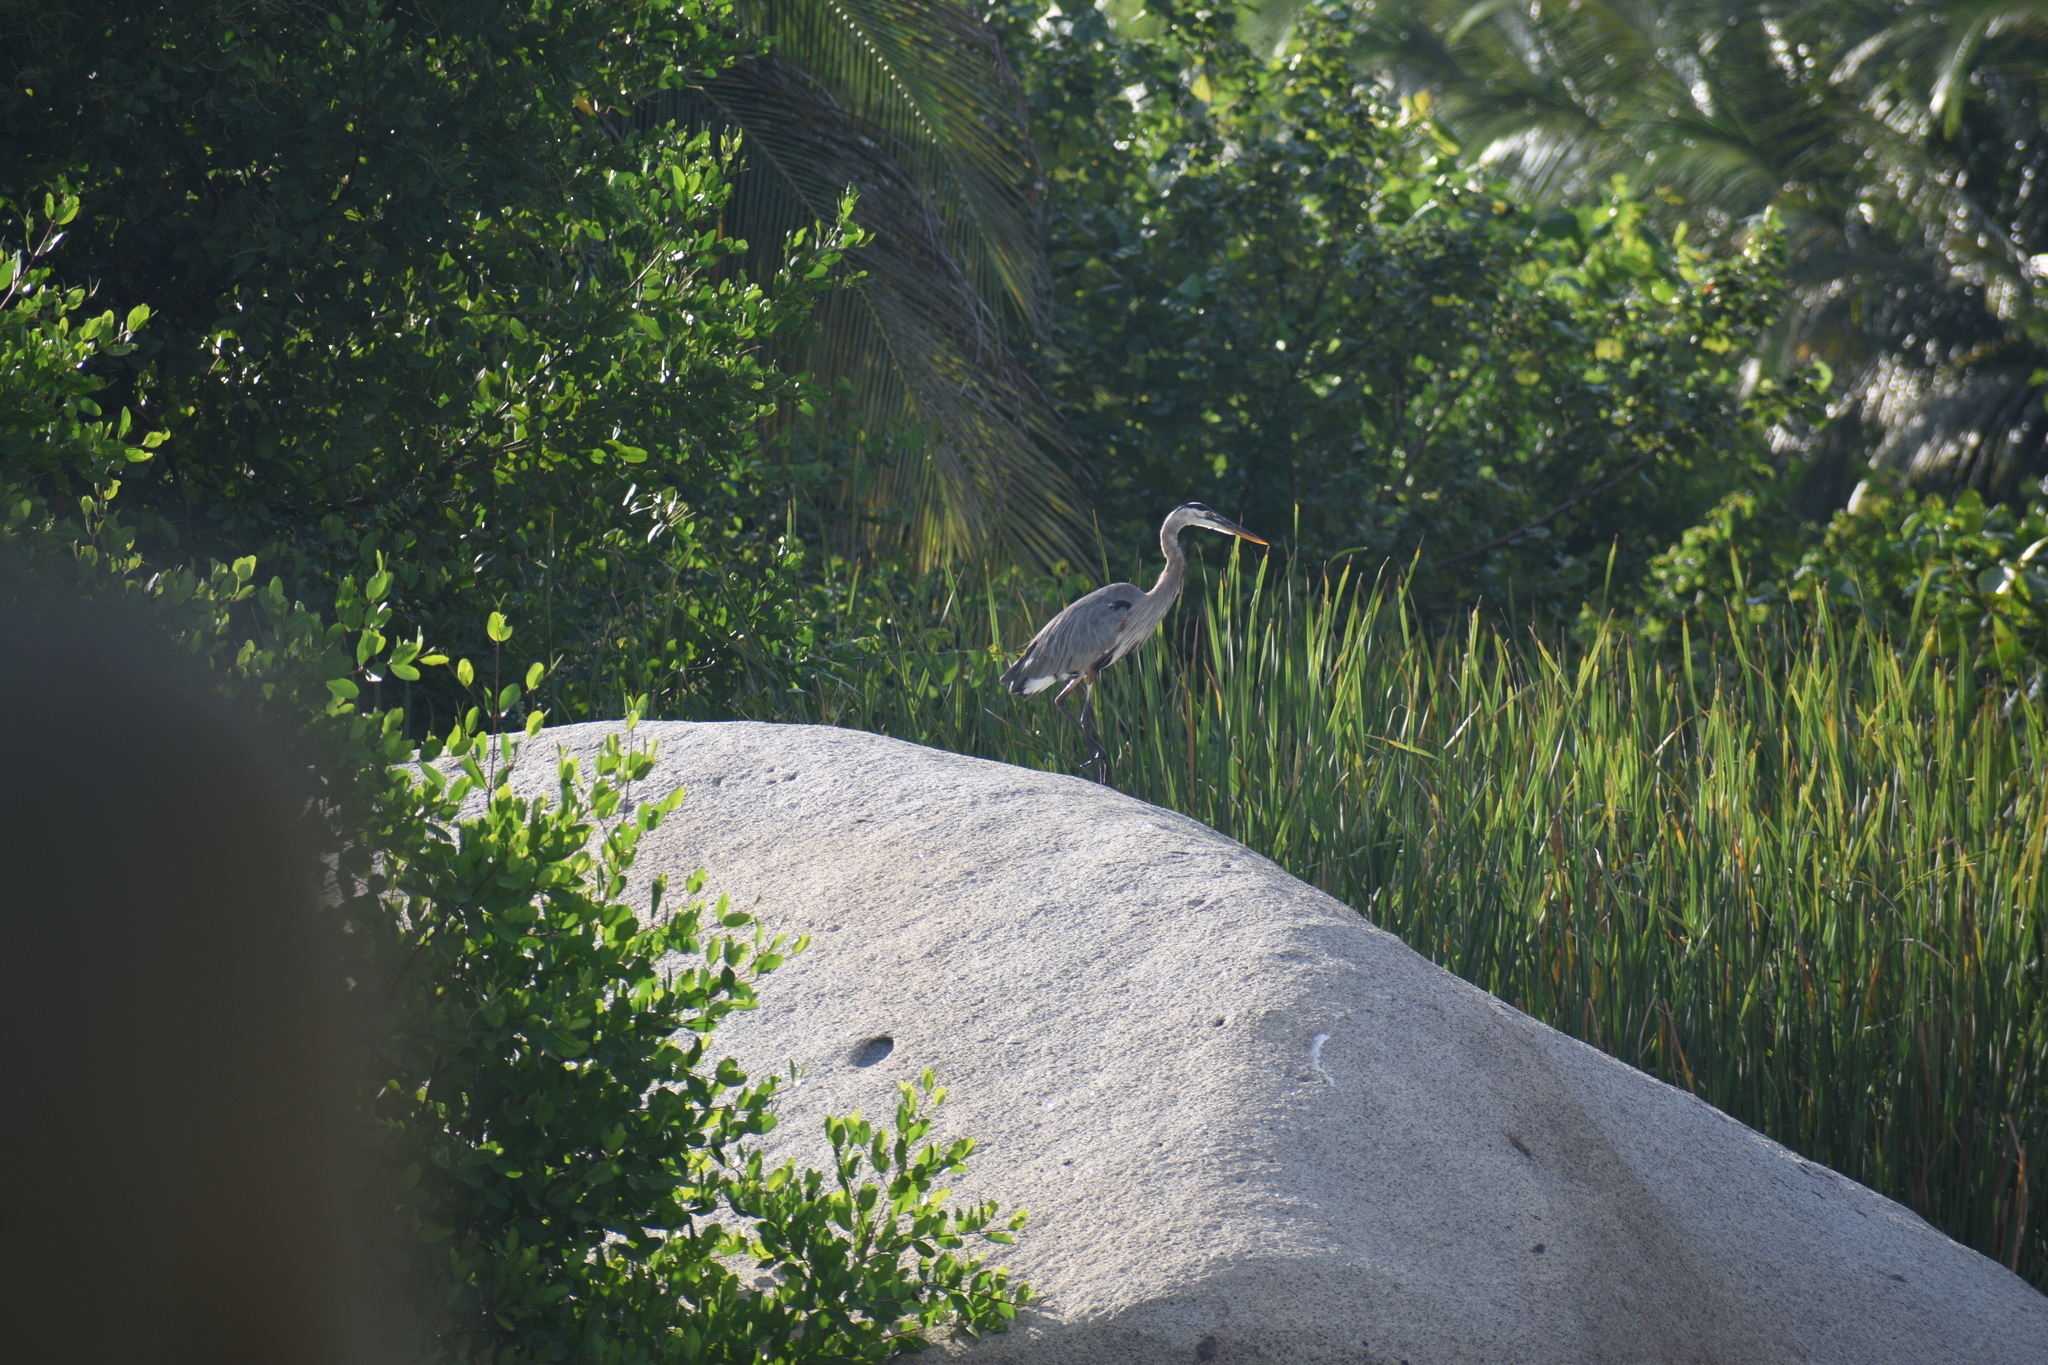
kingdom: Animalia
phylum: Chordata
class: Aves
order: Pelecaniformes
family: Ardeidae
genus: Ardea
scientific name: Ardea herodias
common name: Great blue heron
